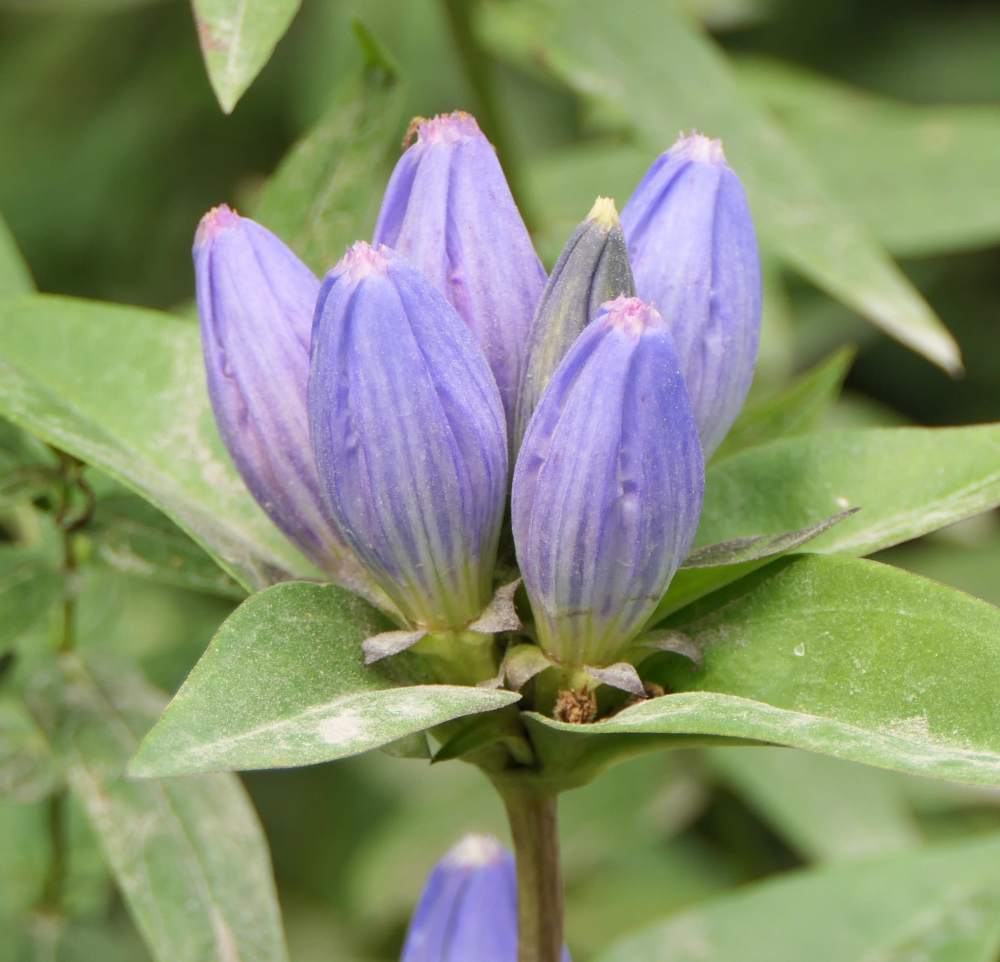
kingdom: Plantae
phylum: Tracheophyta
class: Magnoliopsida
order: Gentianales
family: Gentianaceae
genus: Gentiana
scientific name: Gentiana andrewsii
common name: Bottle gentian
